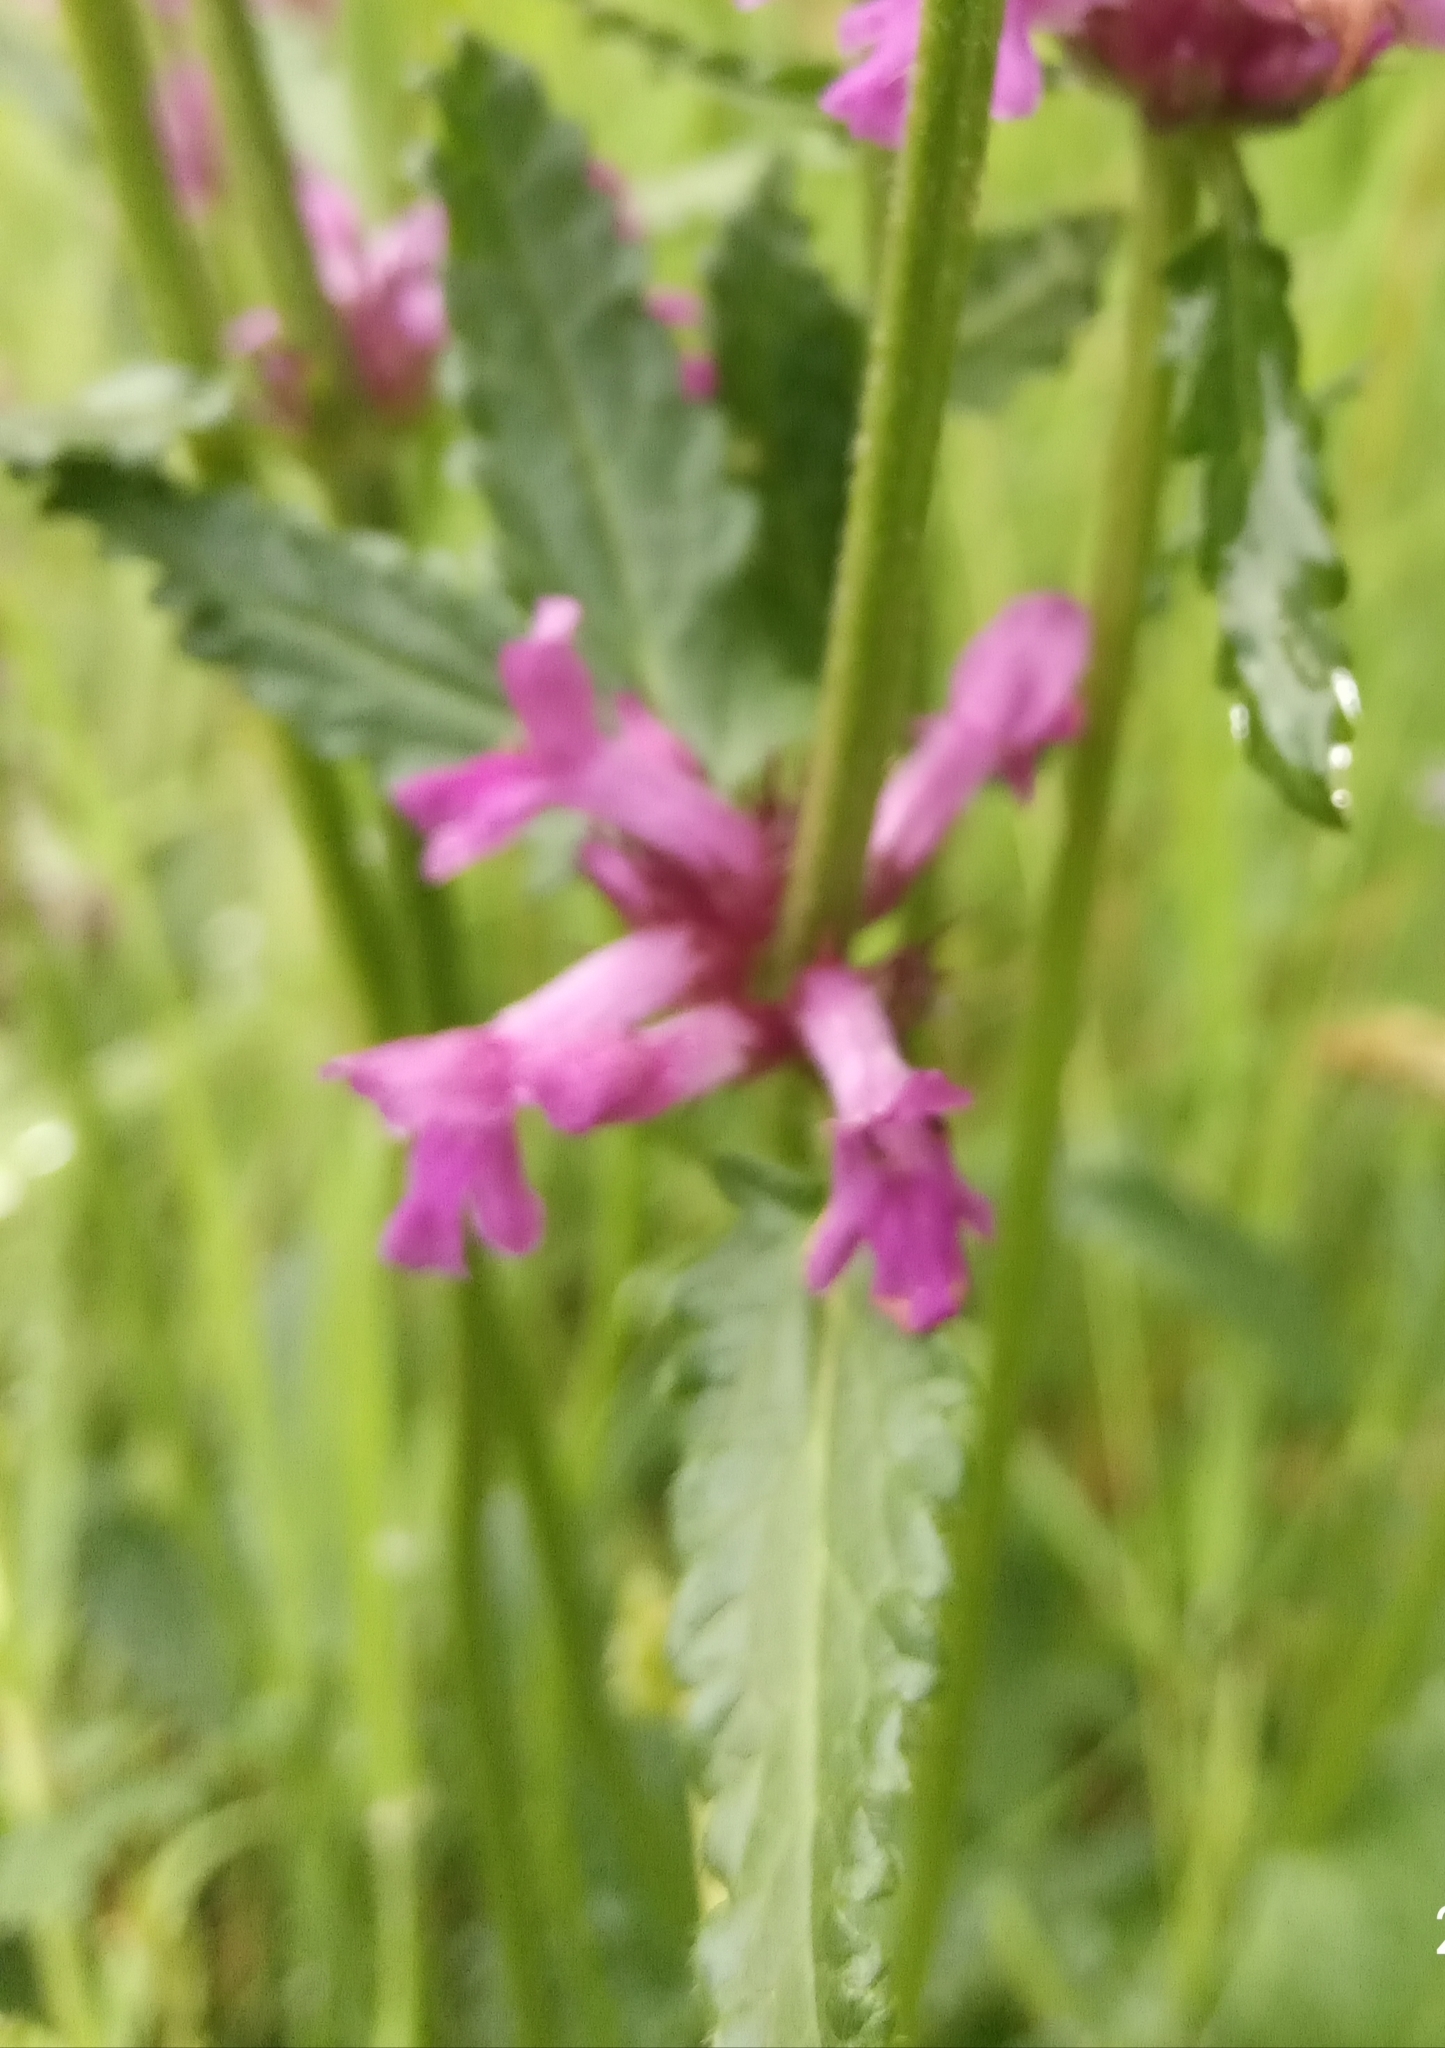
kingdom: Plantae
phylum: Tracheophyta
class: Magnoliopsida
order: Lamiales
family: Lamiaceae
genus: Betonica
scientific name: Betonica officinalis
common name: Bishop's-wort
